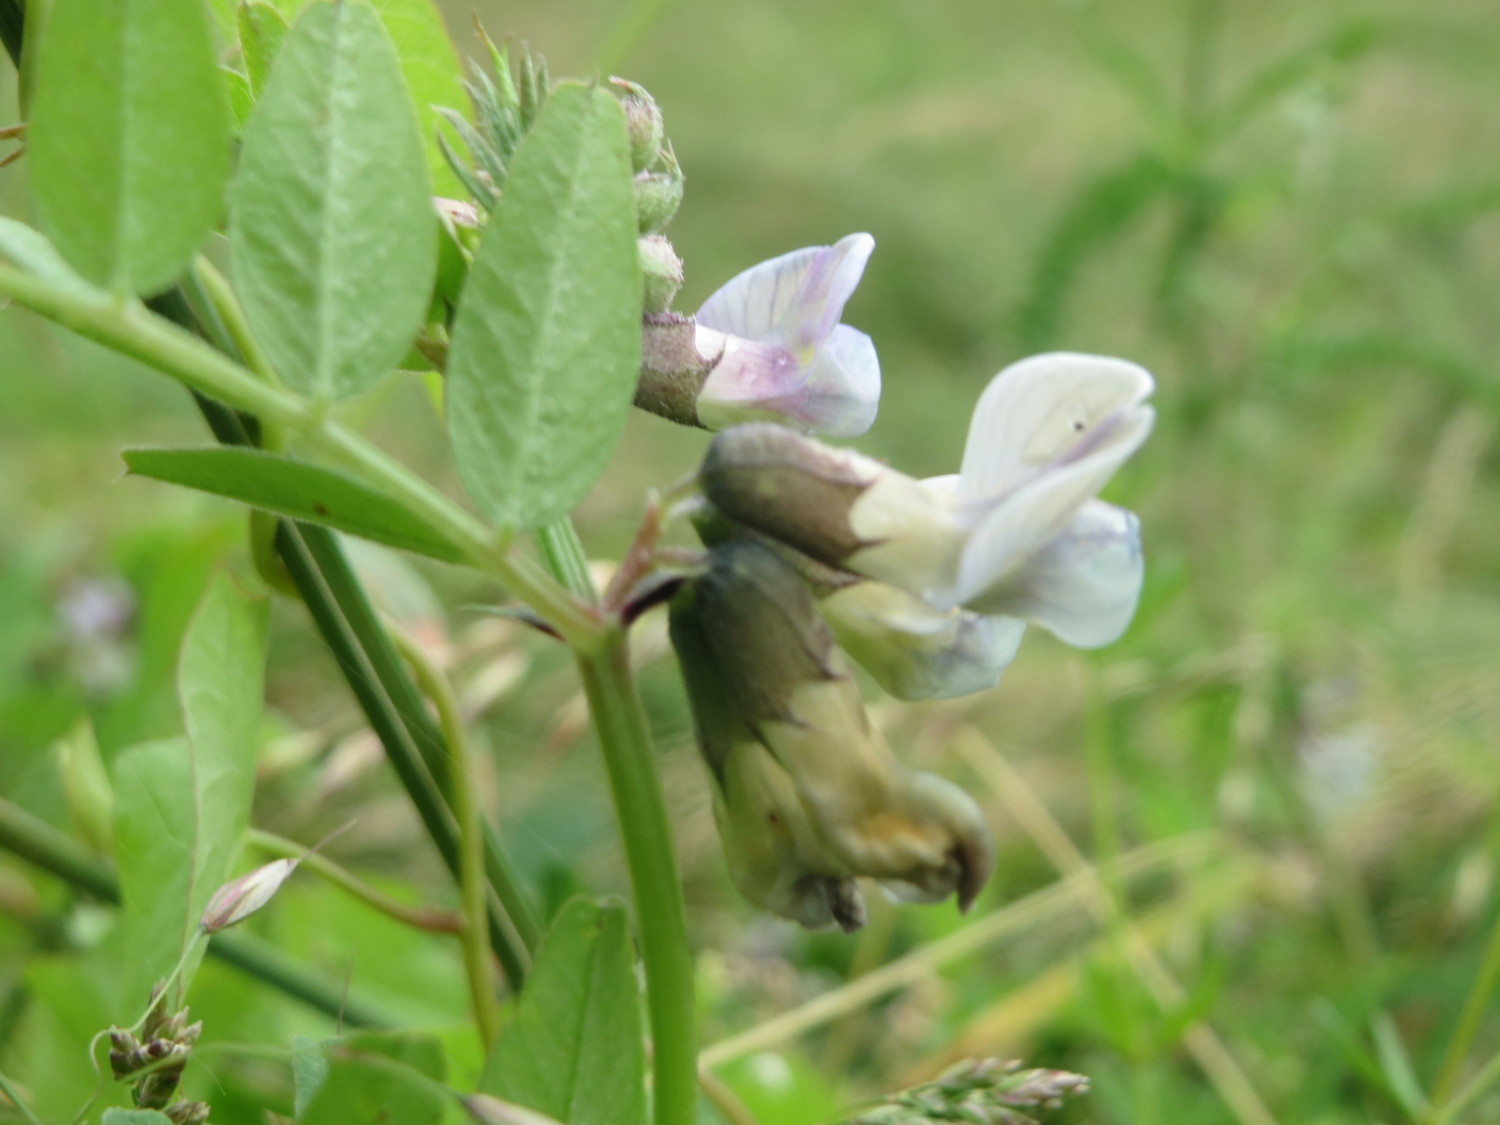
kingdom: Plantae
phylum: Tracheophyta
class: Magnoliopsida
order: Fabales
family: Fabaceae
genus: Vicia
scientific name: Vicia sepium
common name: Bush vetch
